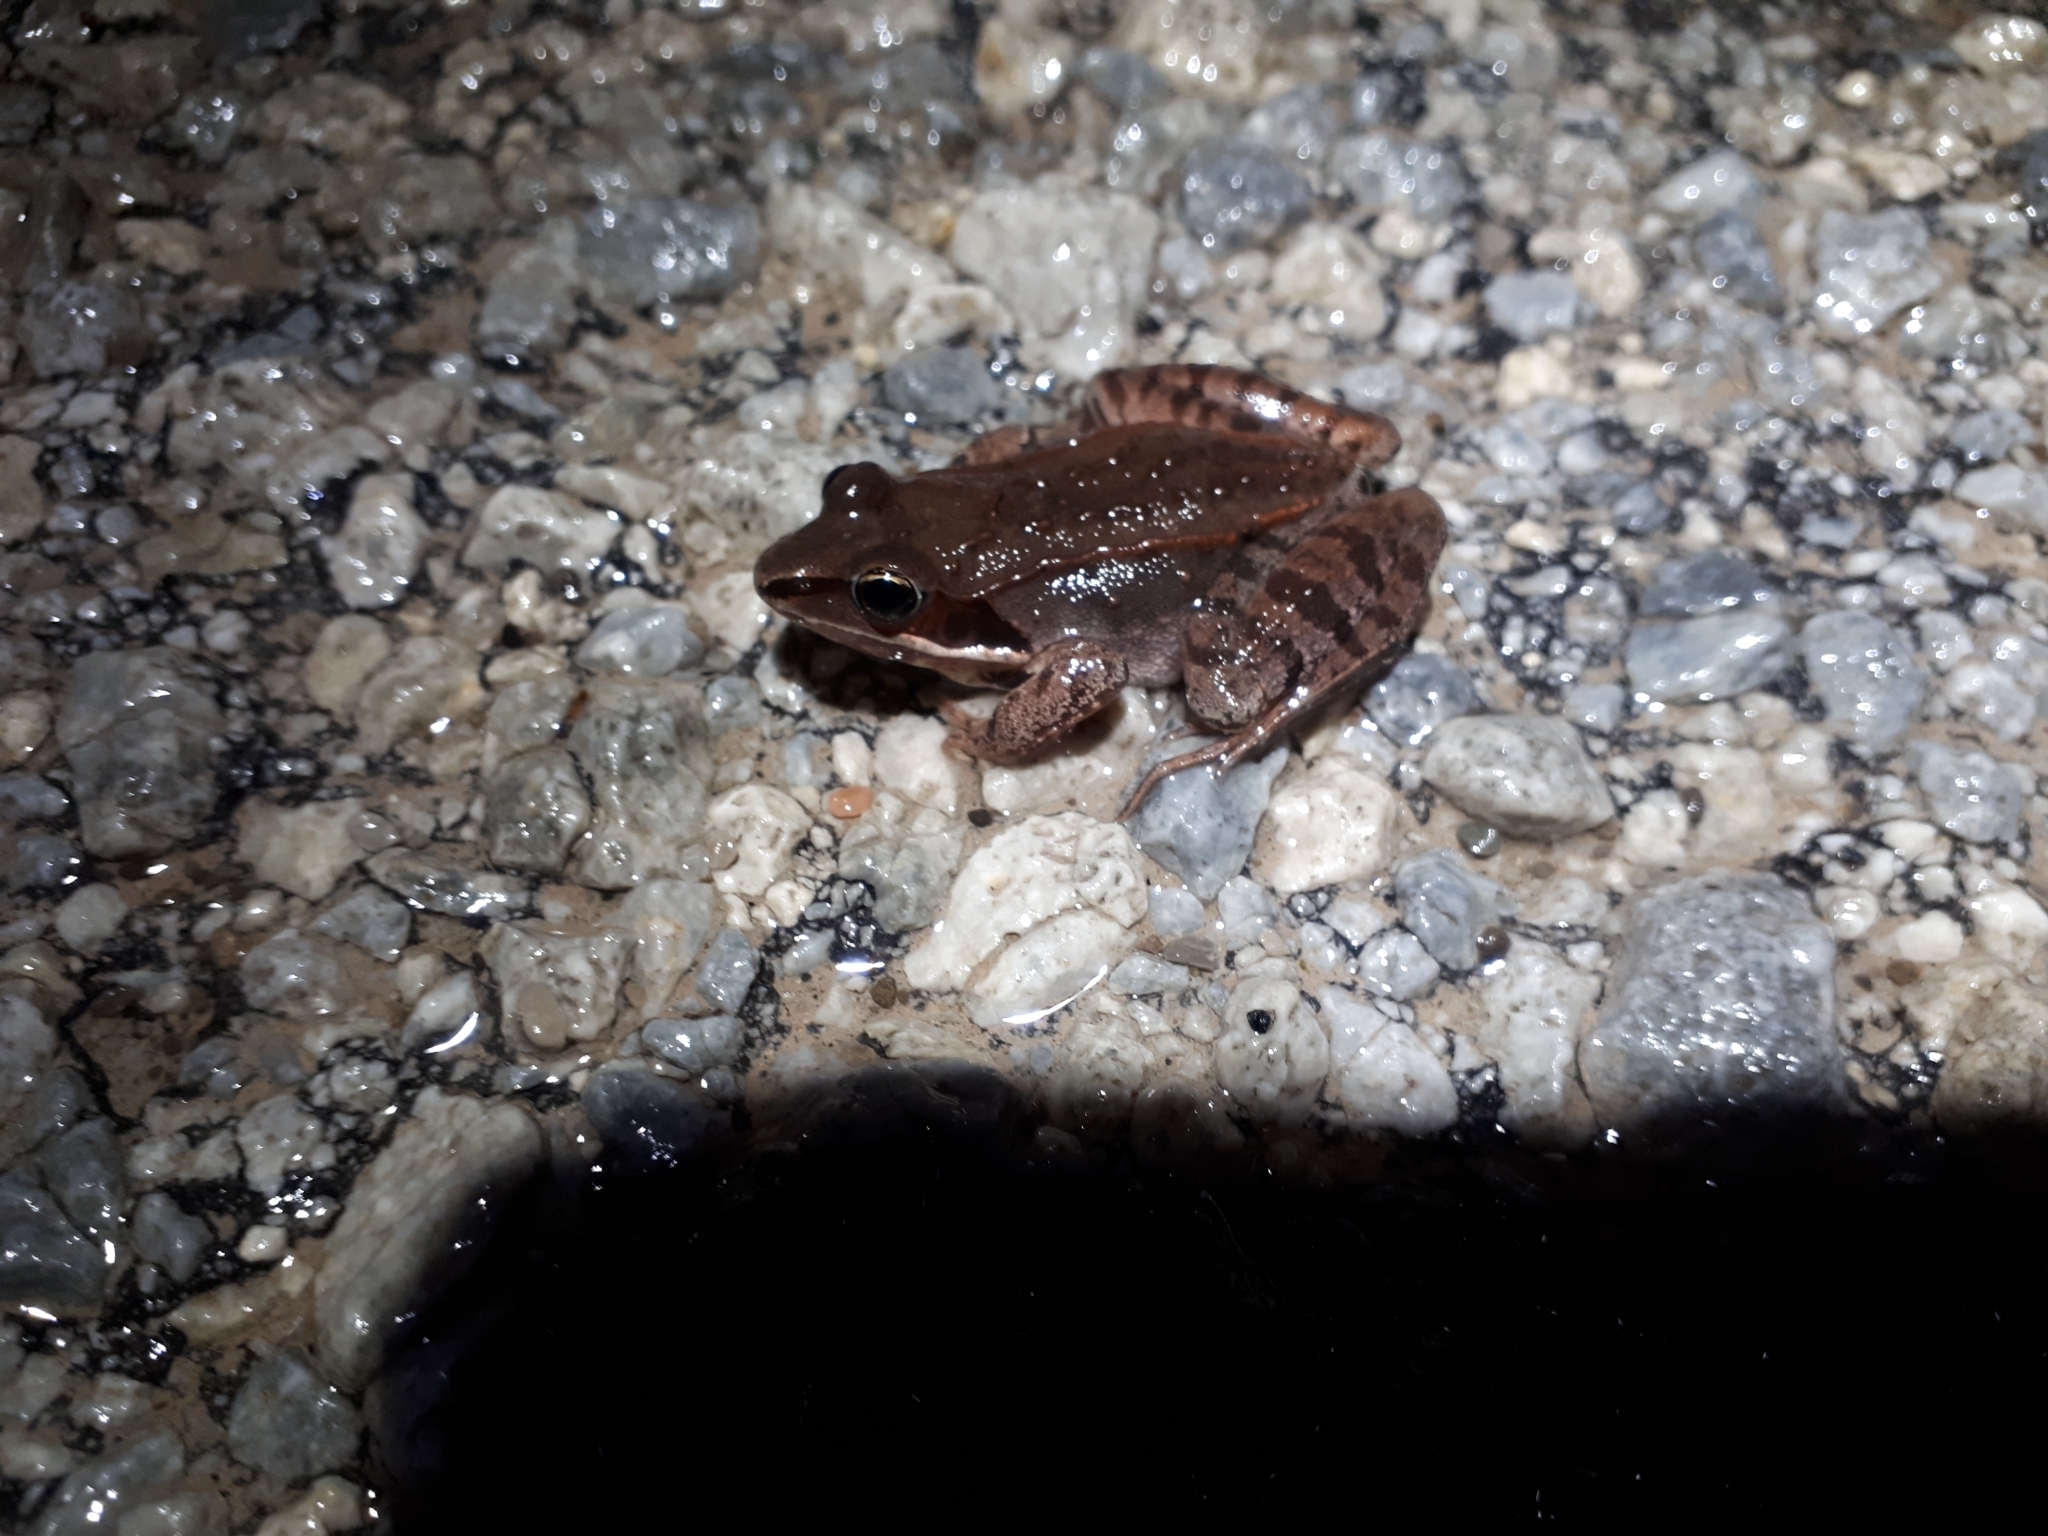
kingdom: Animalia
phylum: Chordata
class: Amphibia
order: Anura
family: Ranidae
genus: Lithobates
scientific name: Lithobates sylvaticus
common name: Wood frog
